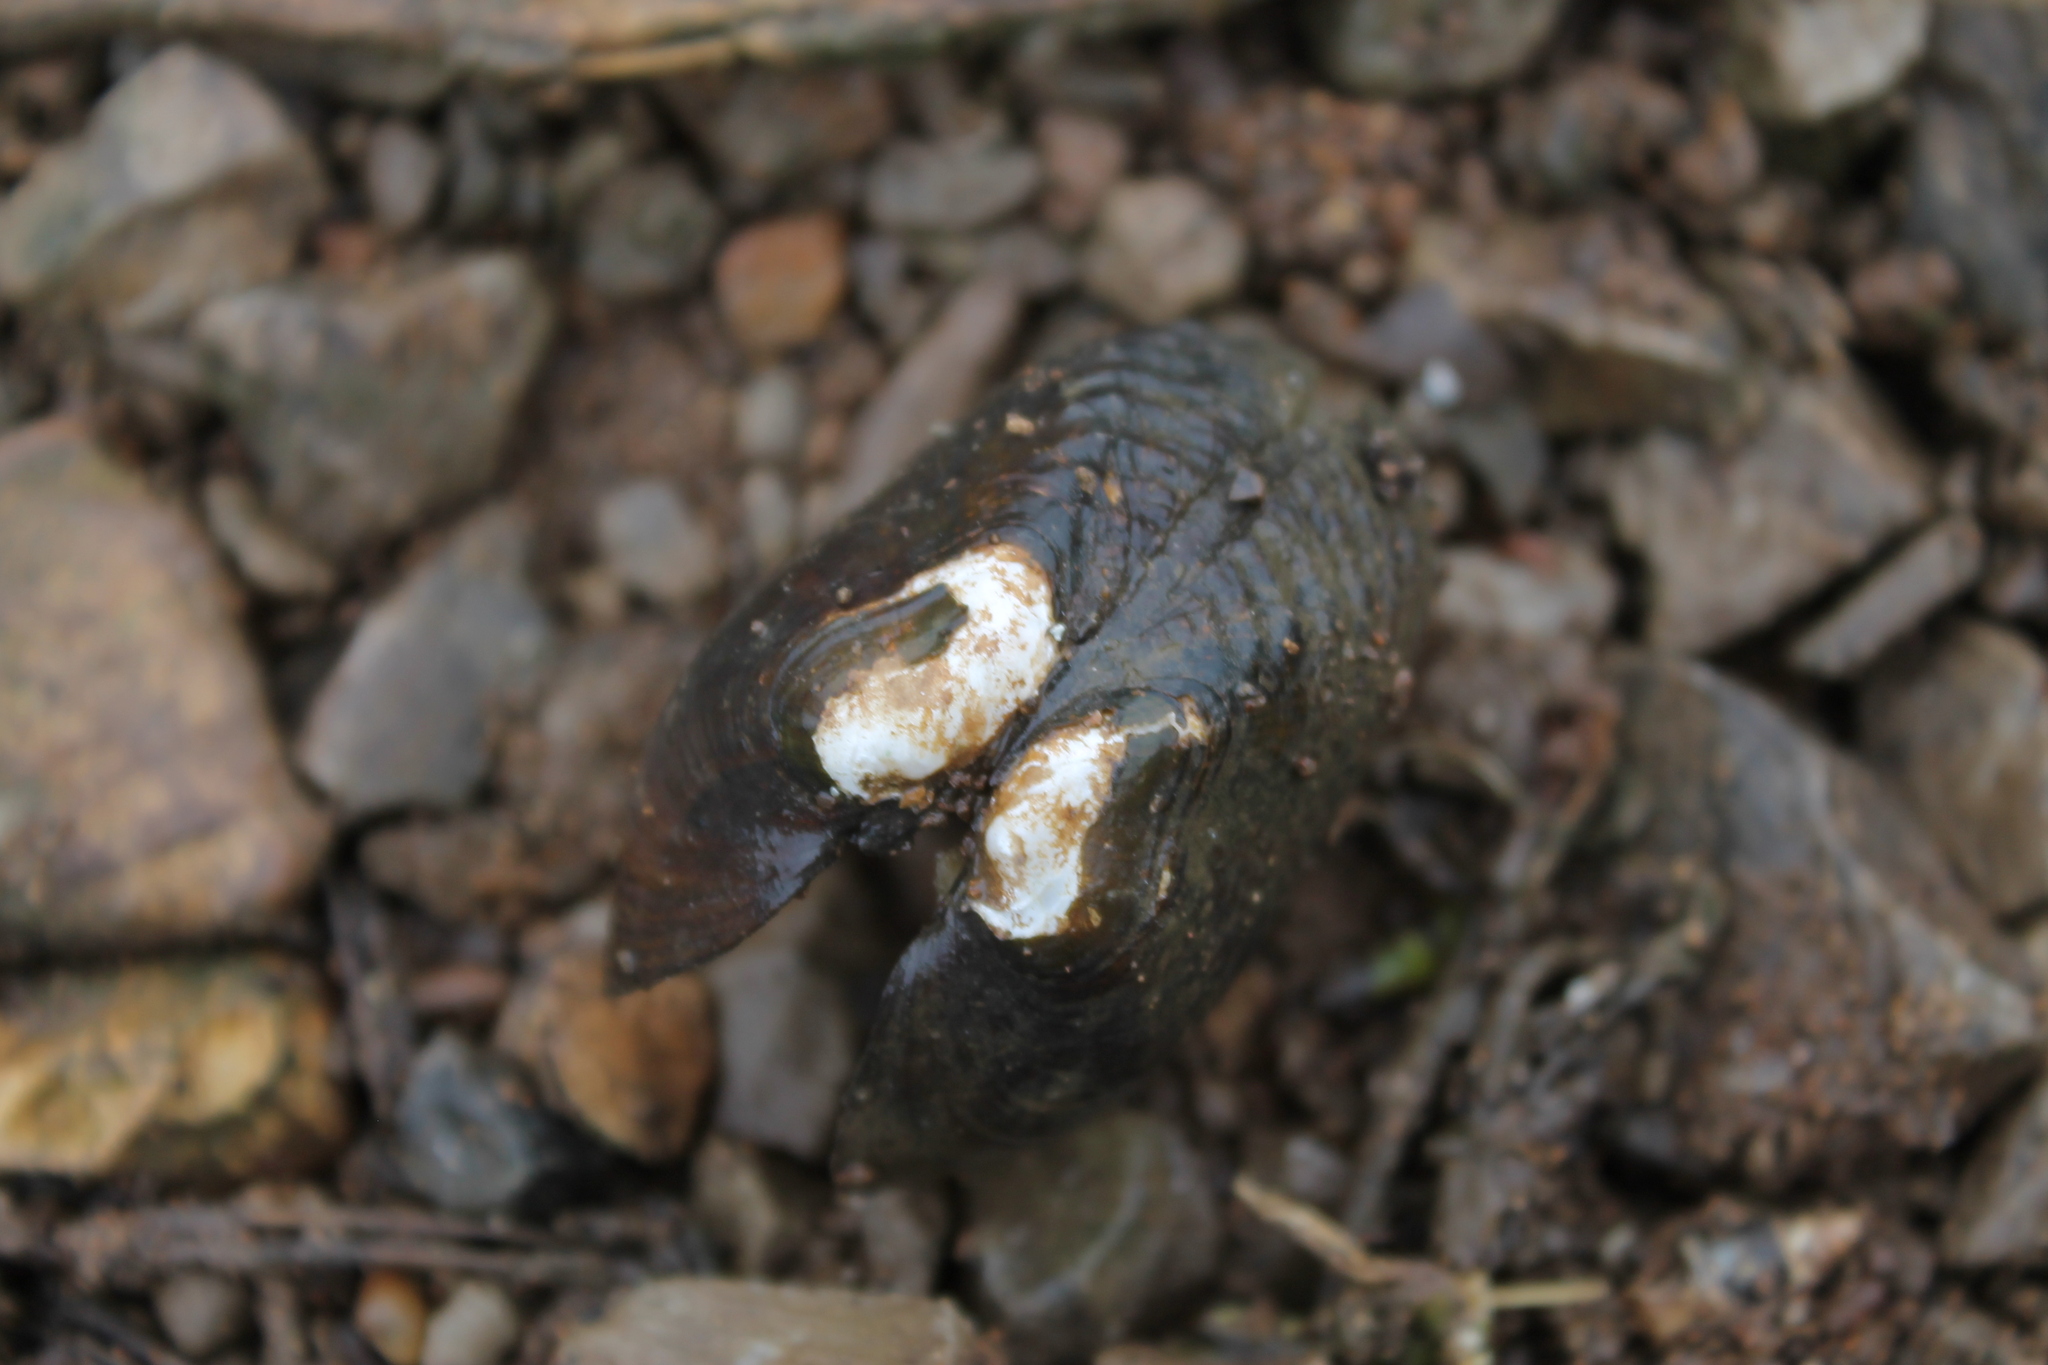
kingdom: Animalia
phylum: Mollusca
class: Bivalvia
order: Unionida
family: Unionidae
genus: Lemiox
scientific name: Lemiox rimosus
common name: Birdwing pearlymussel
